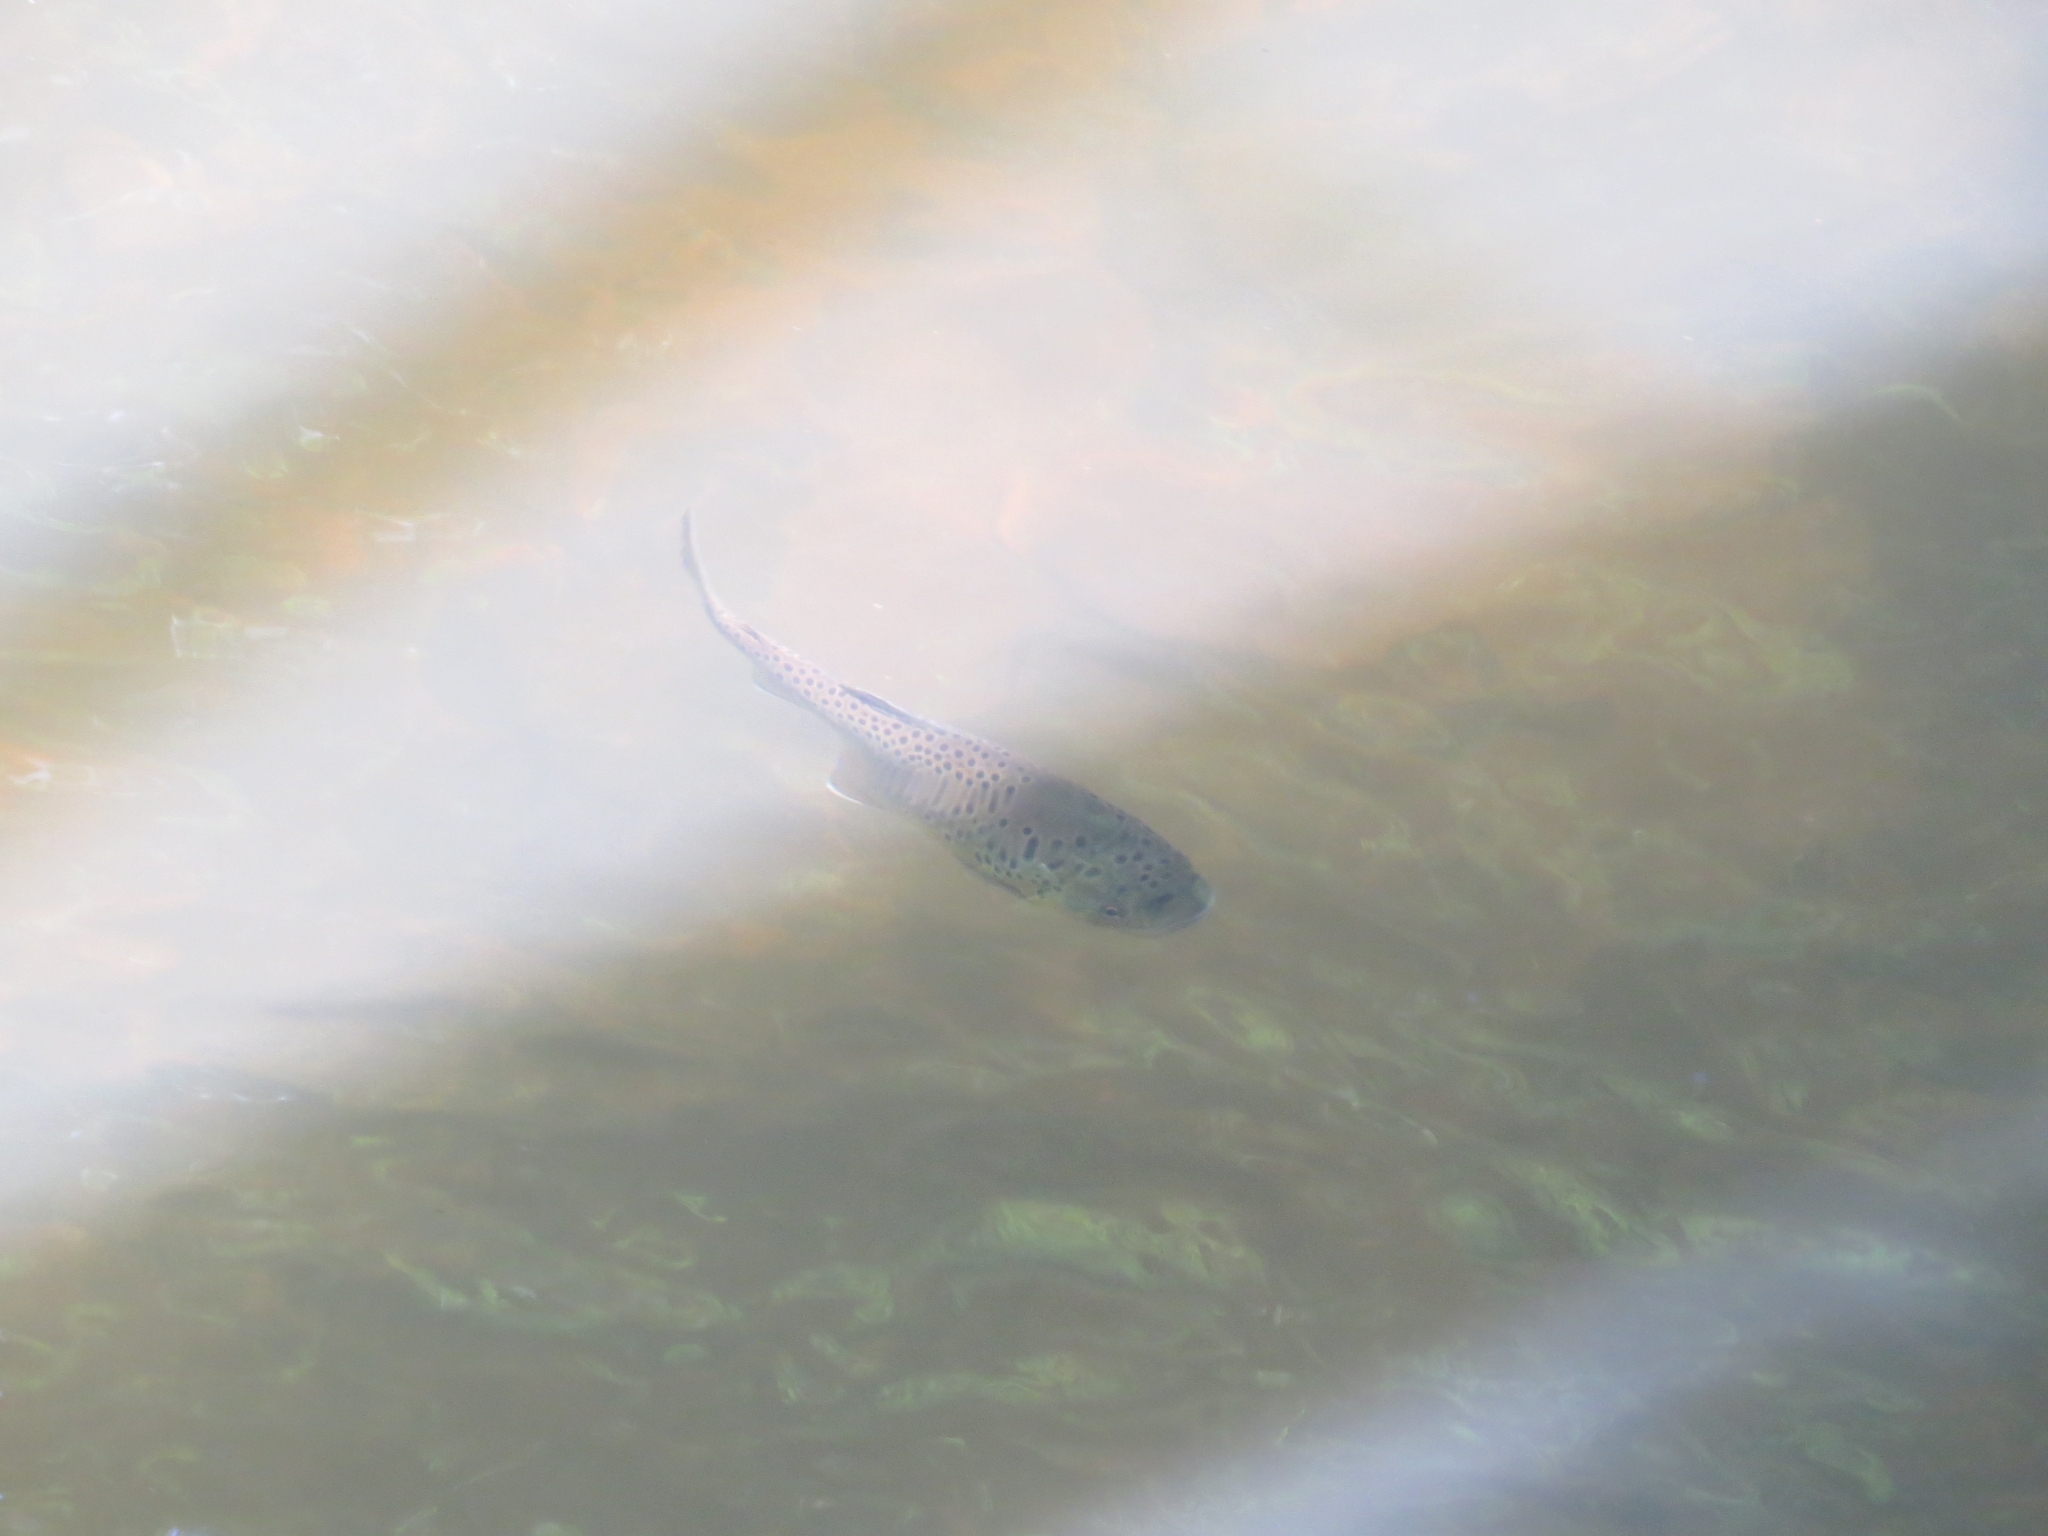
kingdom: Animalia
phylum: Chordata
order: Salmoniformes
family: Salmonidae
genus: Salmo
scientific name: Salmo trutta
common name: Brown trout
